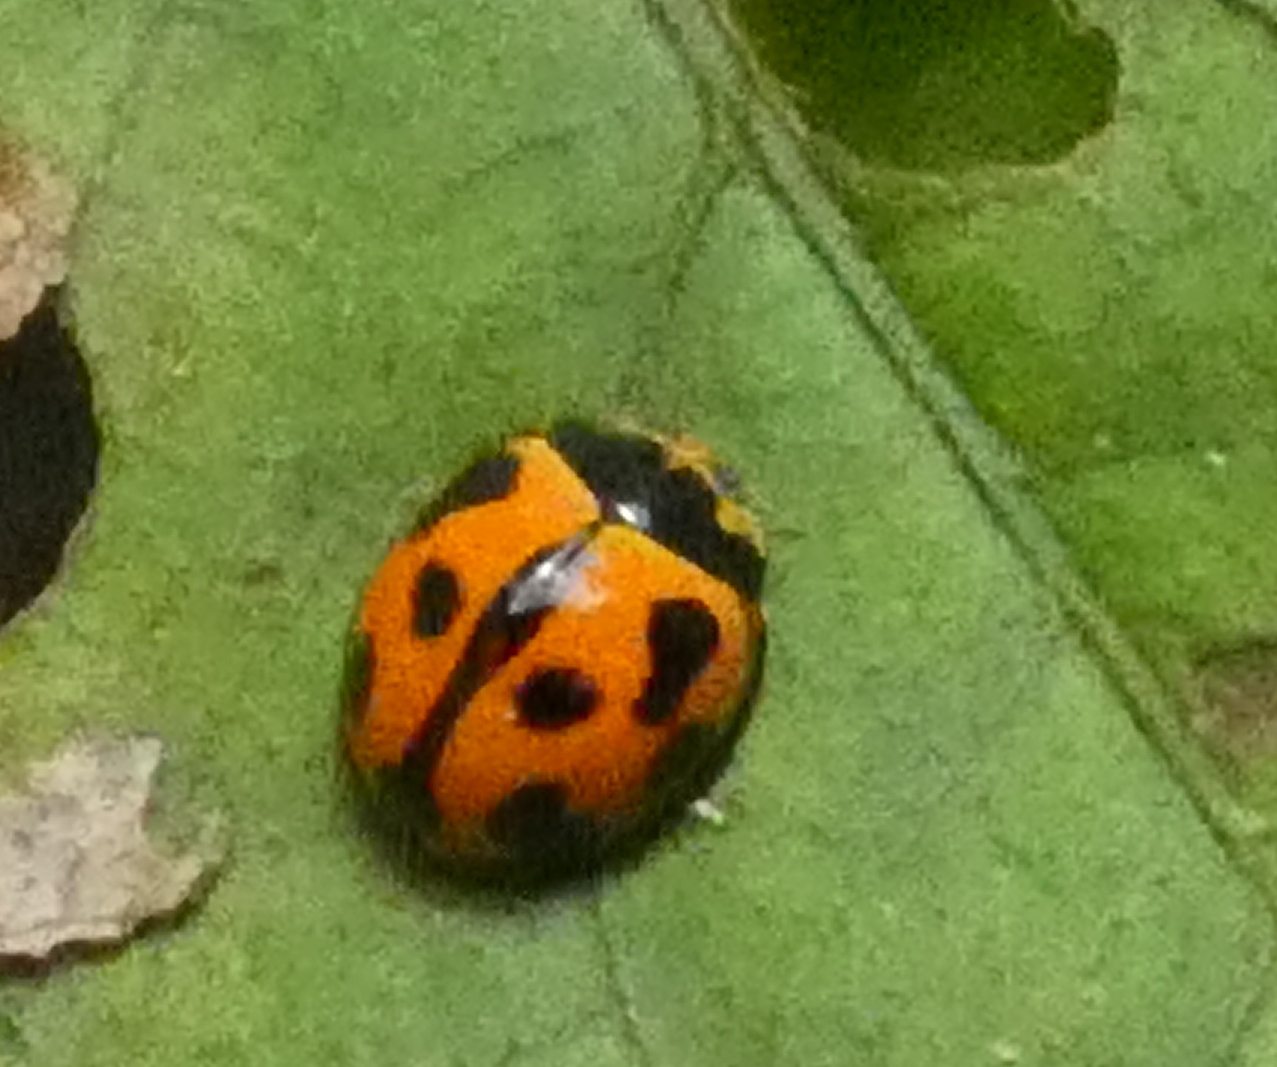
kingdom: Animalia
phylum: Arthropoda
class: Insecta
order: Coleoptera
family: Coccinellidae
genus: Coelophora
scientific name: Coelophora inaequalis
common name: Common australian lady beetle
